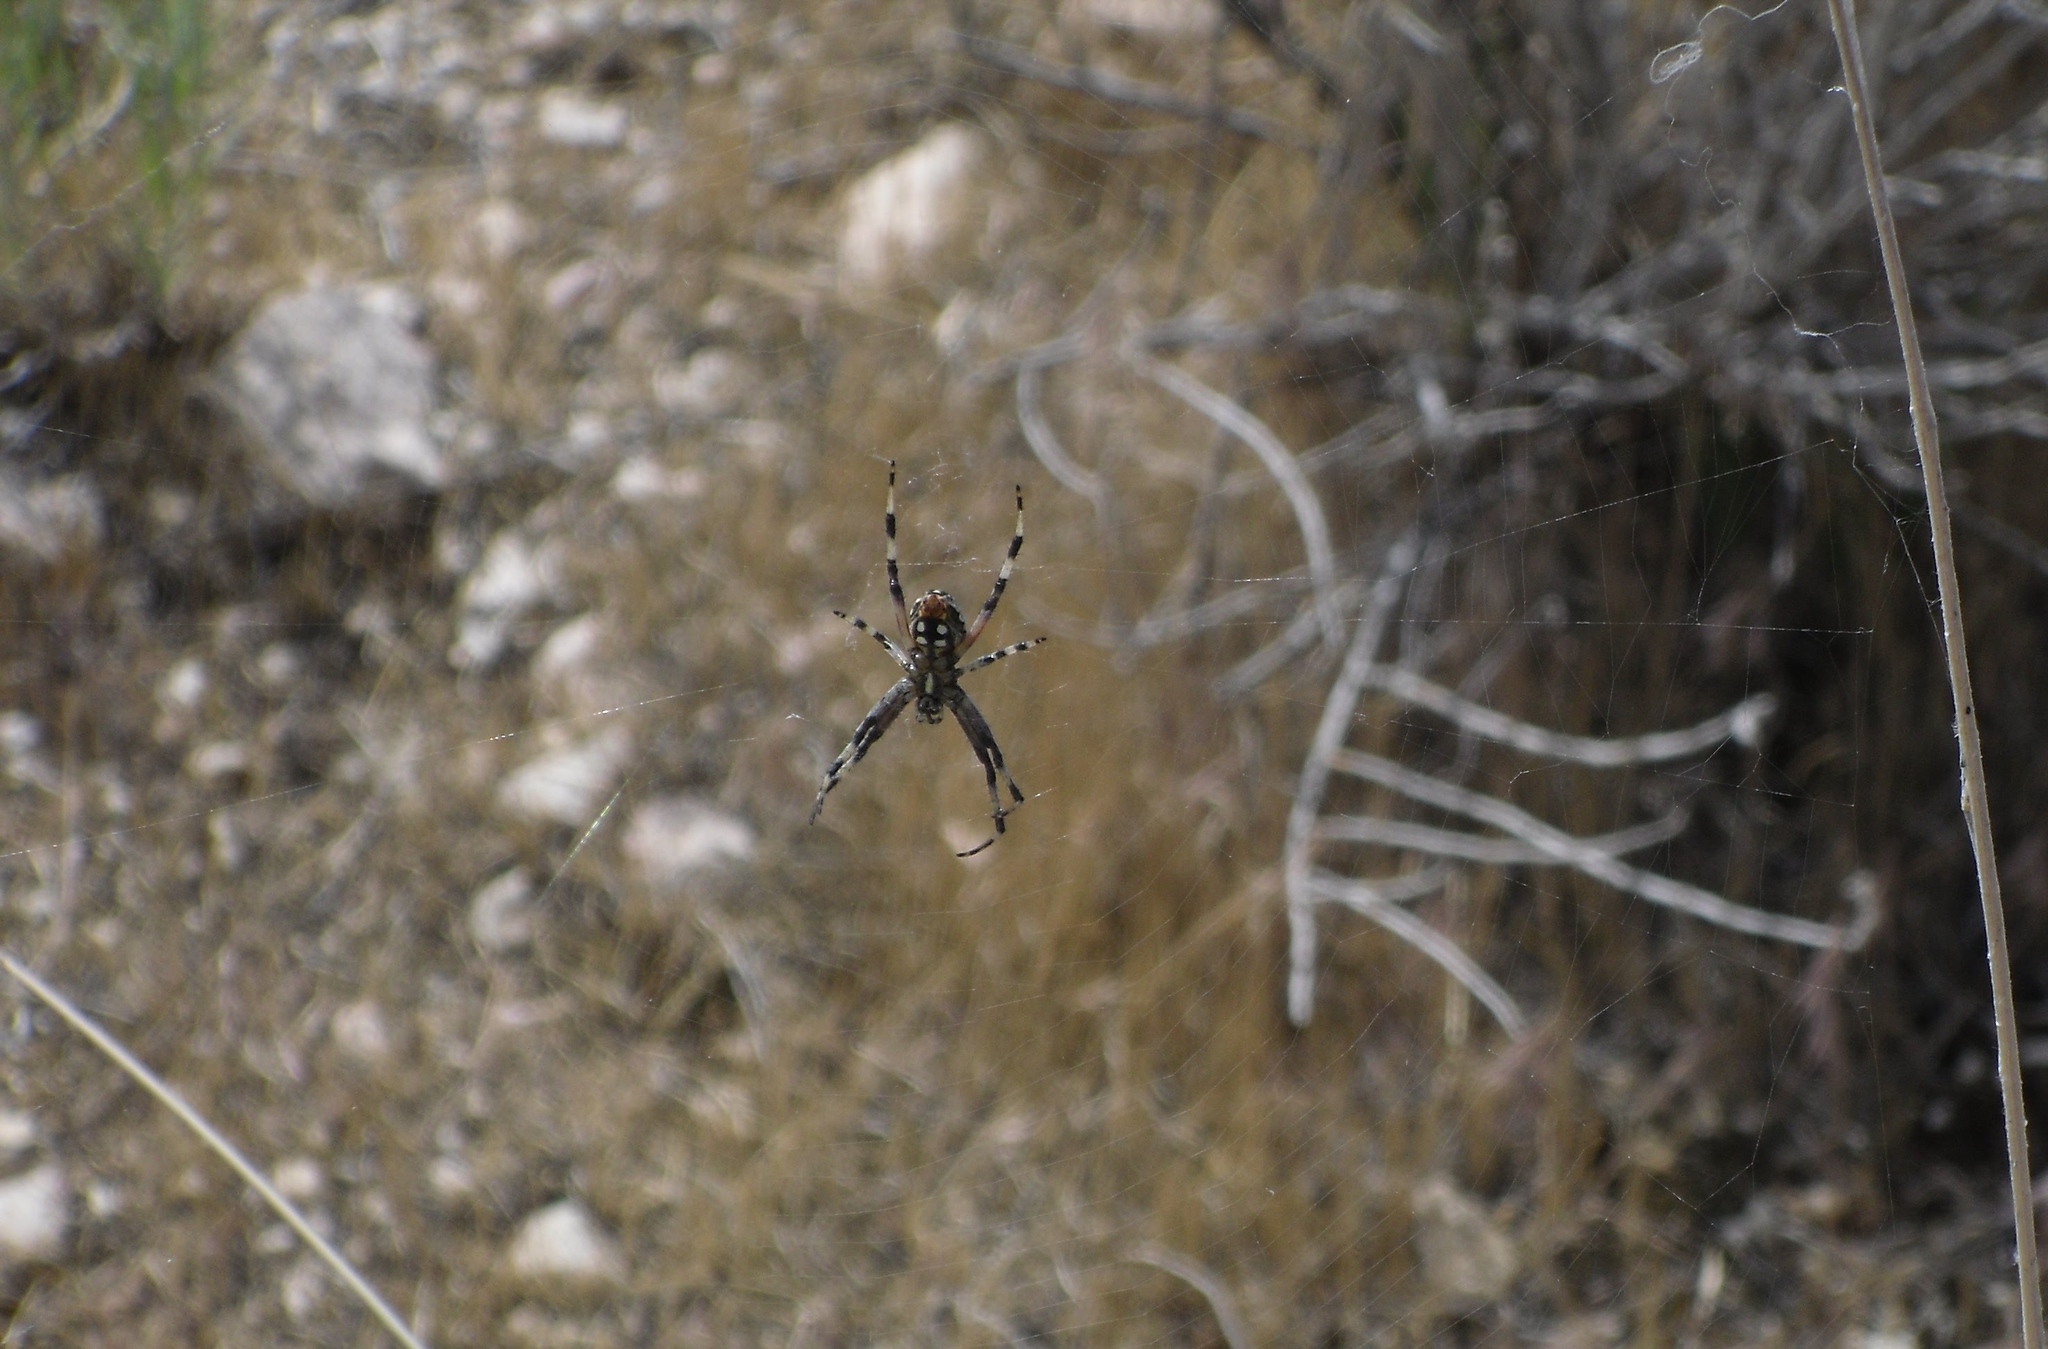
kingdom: Animalia
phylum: Arthropoda
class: Arachnida
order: Araneae
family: Araneidae
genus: Neoscona
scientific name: Neoscona oaxacensis
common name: Orb weavers
